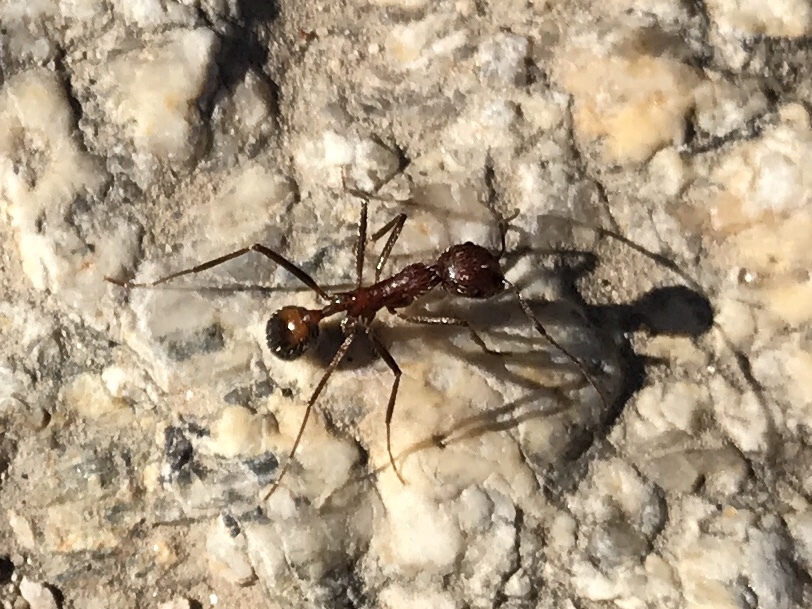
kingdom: Animalia
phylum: Arthropoda
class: Insecta
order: Hymenoptera
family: Formicidae
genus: Novomessor
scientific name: Novomessor albisetosa
